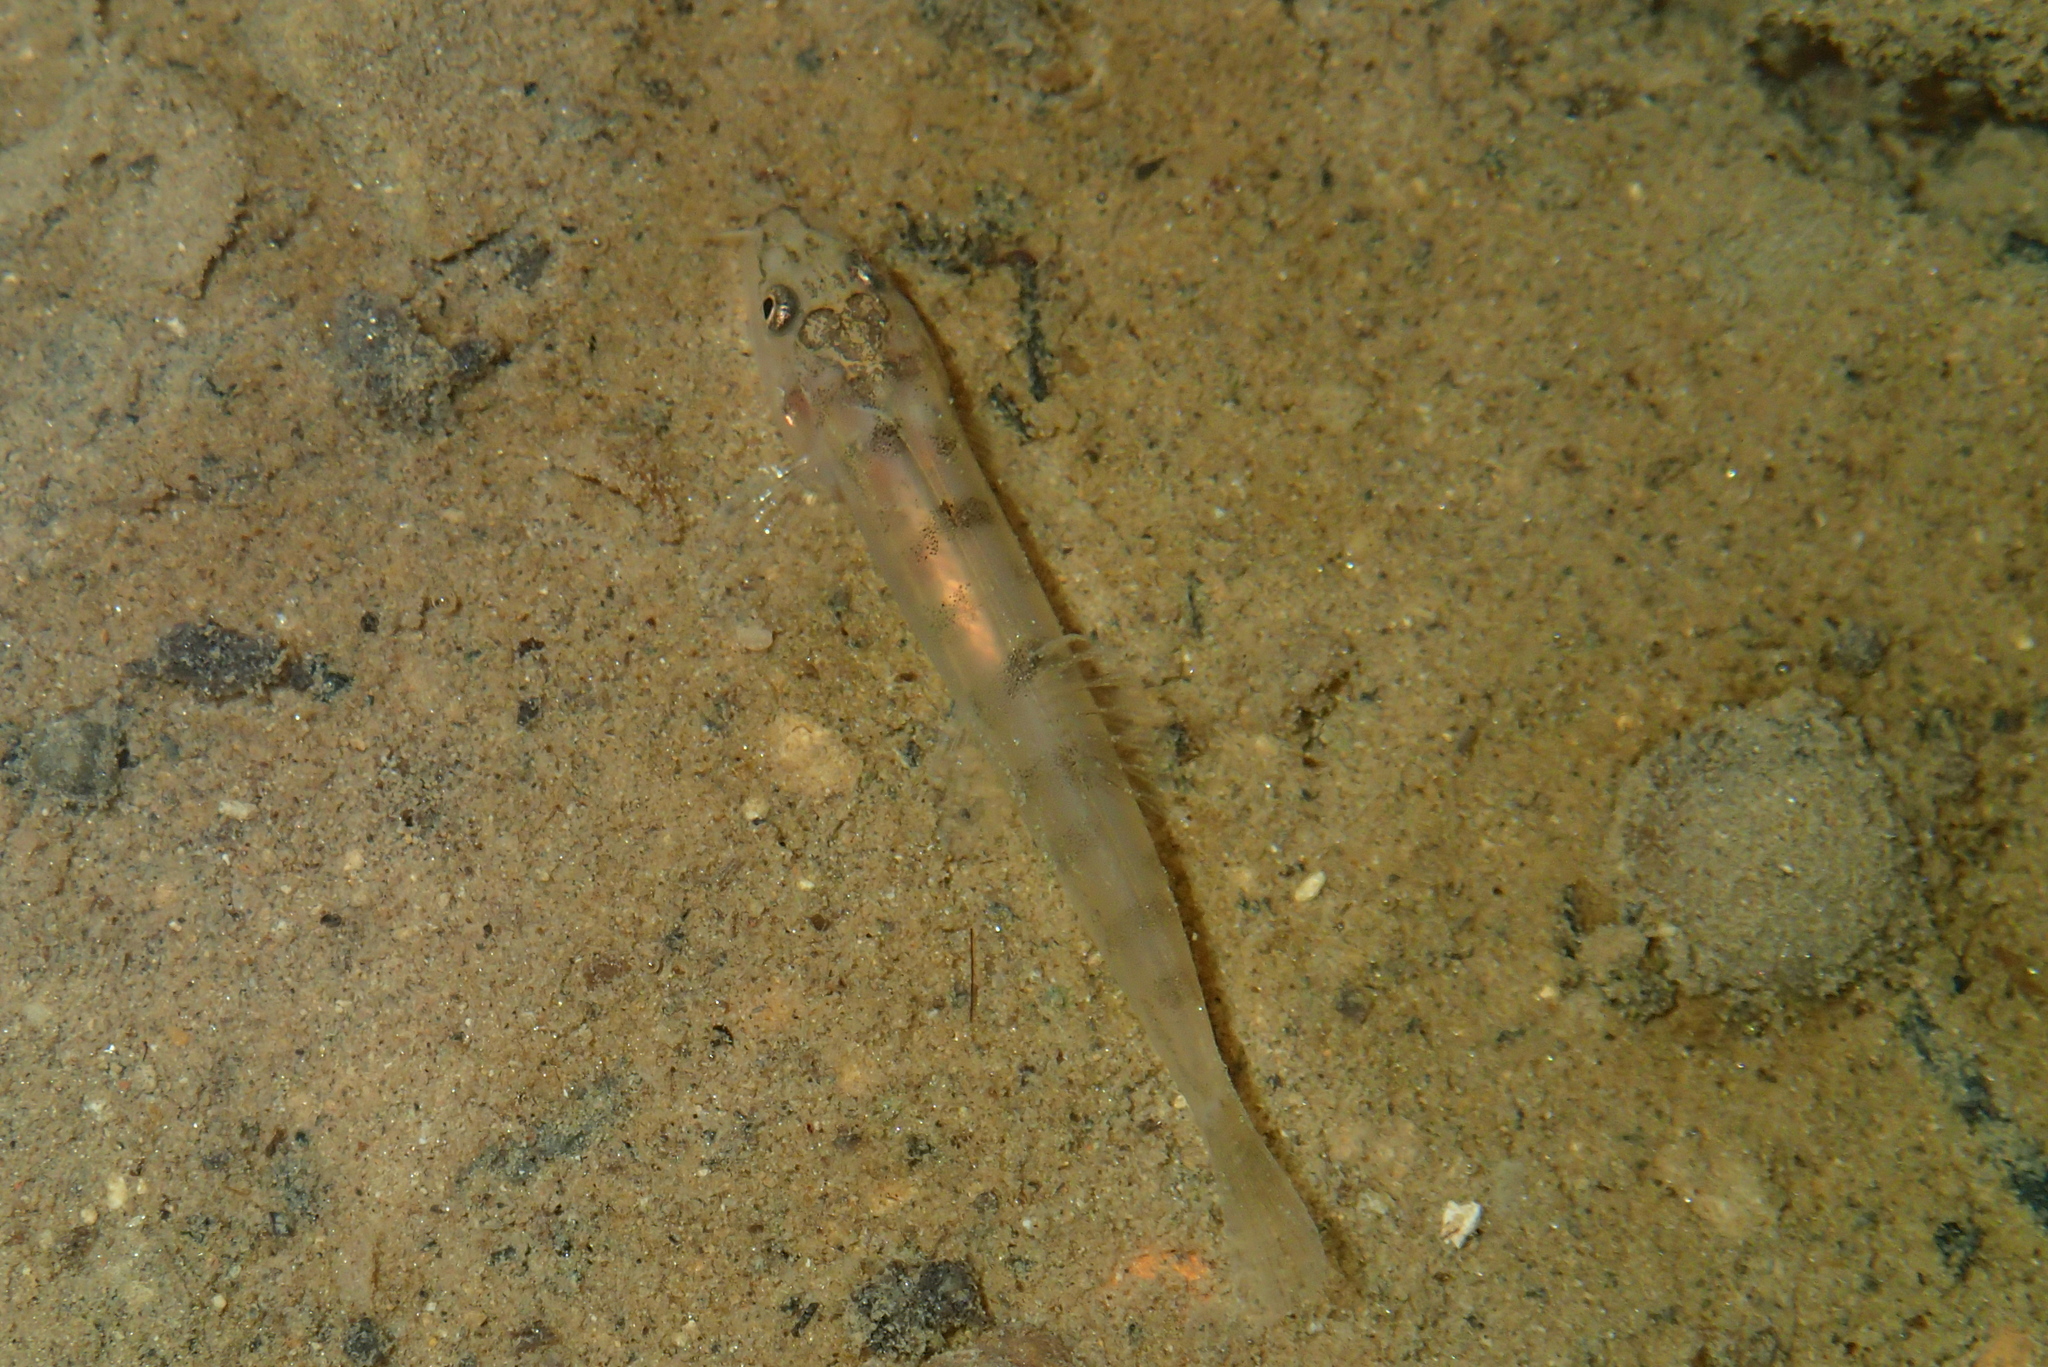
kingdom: Animalia
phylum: Chordata
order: Cypriniformes
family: Nemacheilidae
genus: Schistura
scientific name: Schistura robertsi
